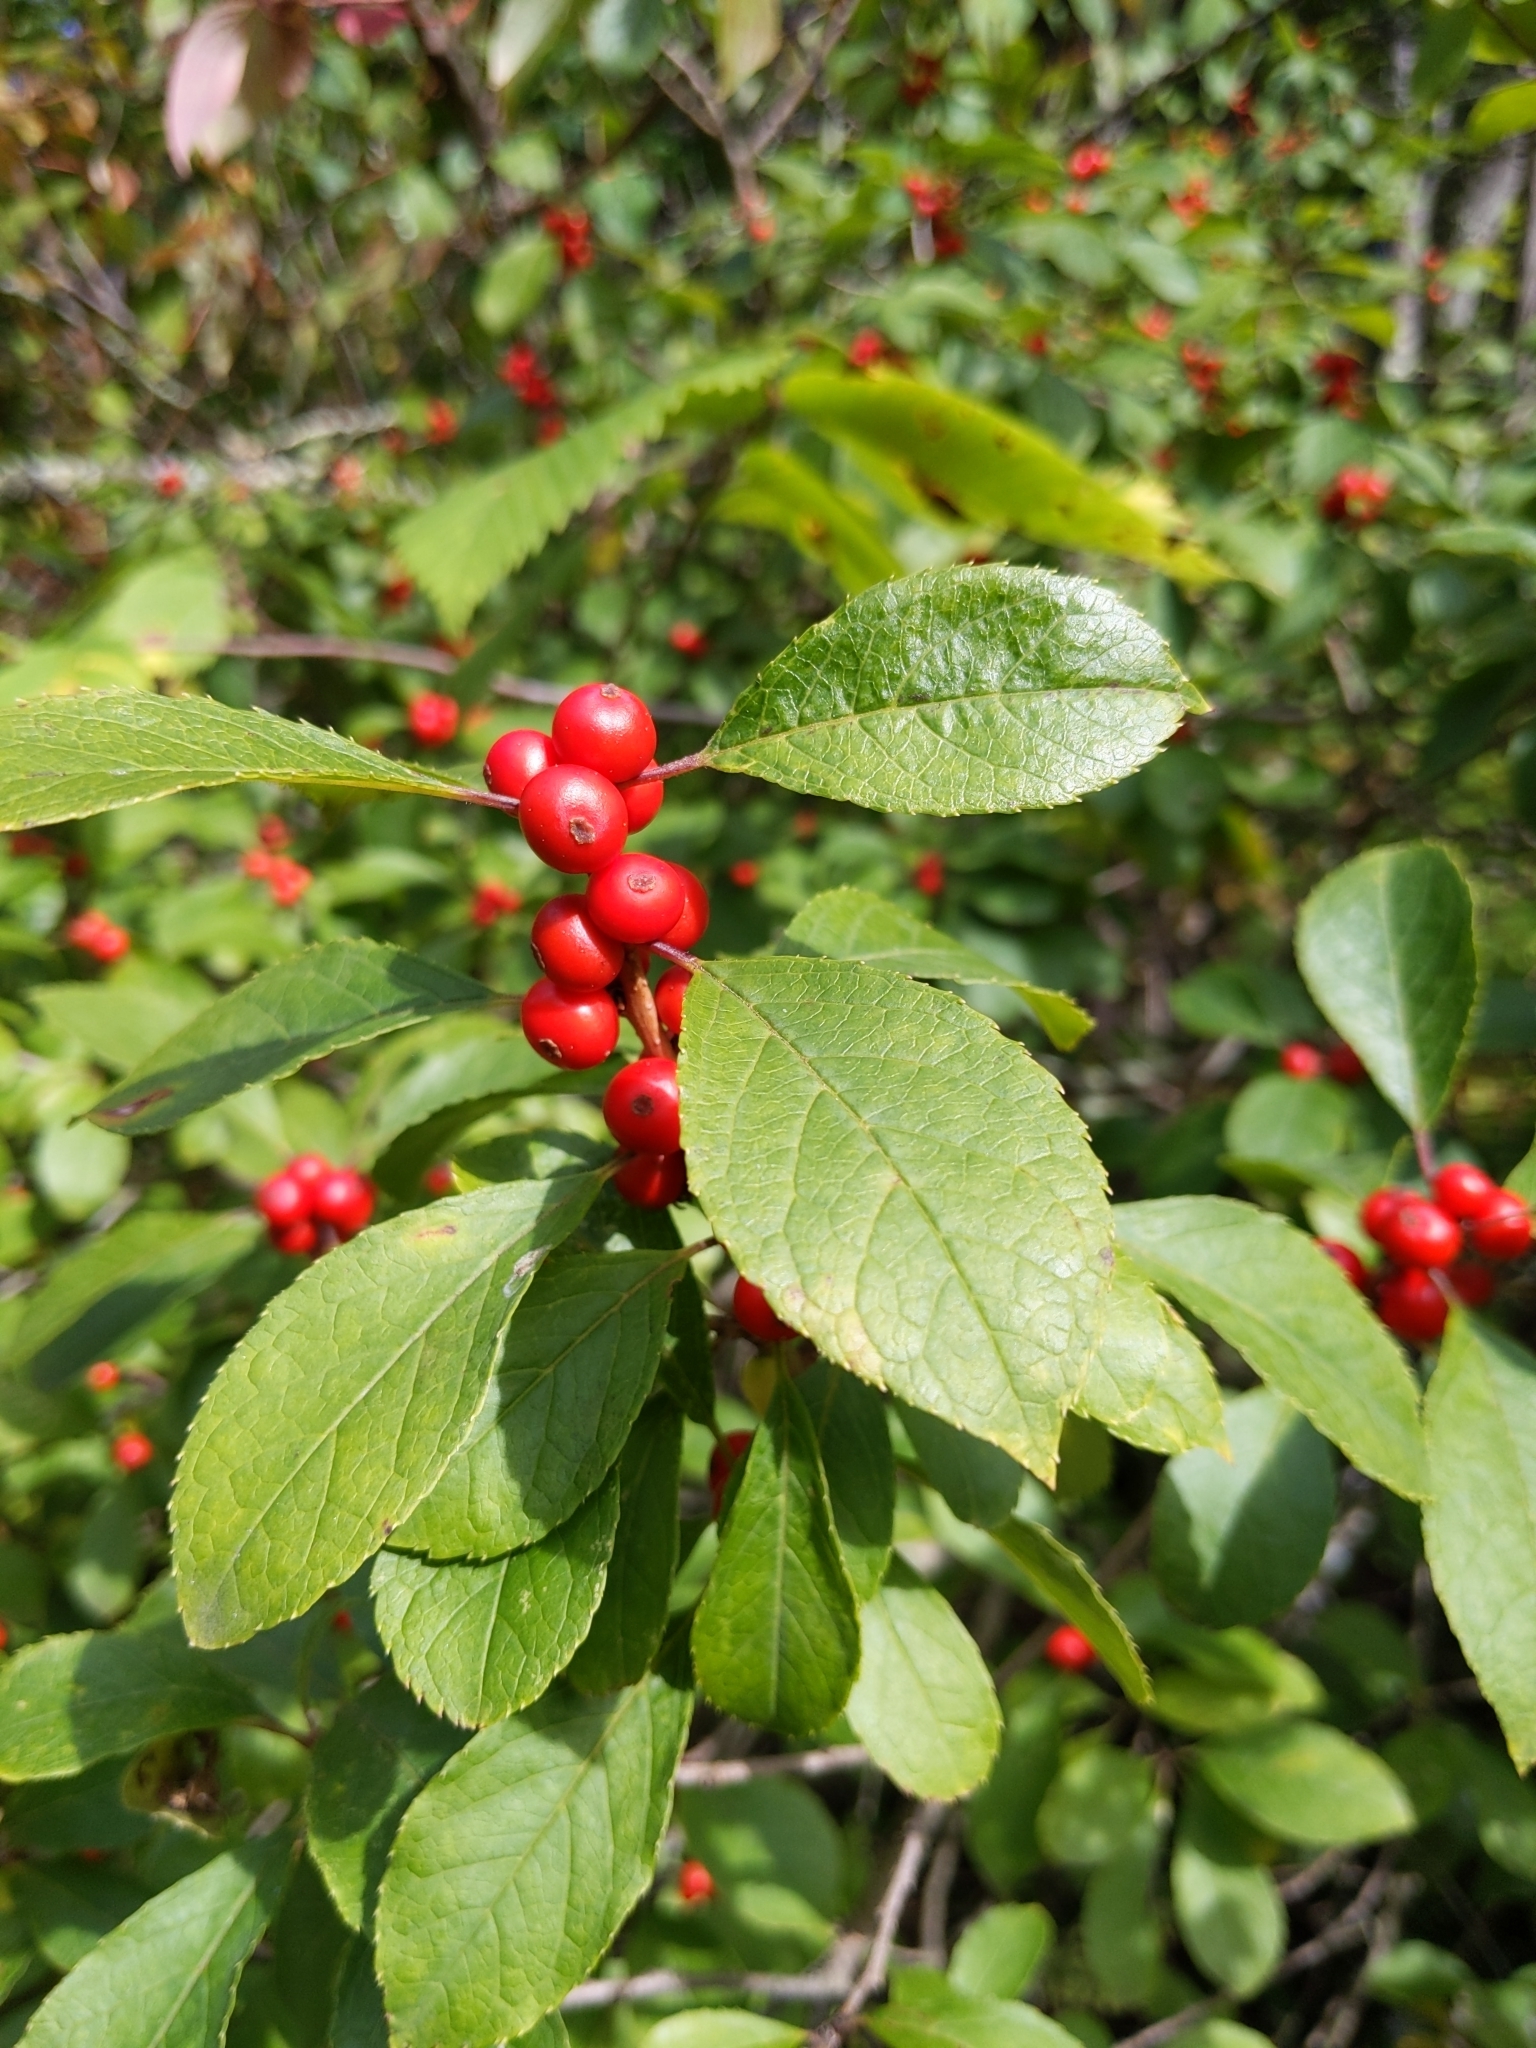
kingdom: Plantae
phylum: Tracheophyta
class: Magnoliopsida
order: Aquifoliales
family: Aquifoliaceae
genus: Ilex
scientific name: Ilex verticillata
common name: Virginia winterberry
